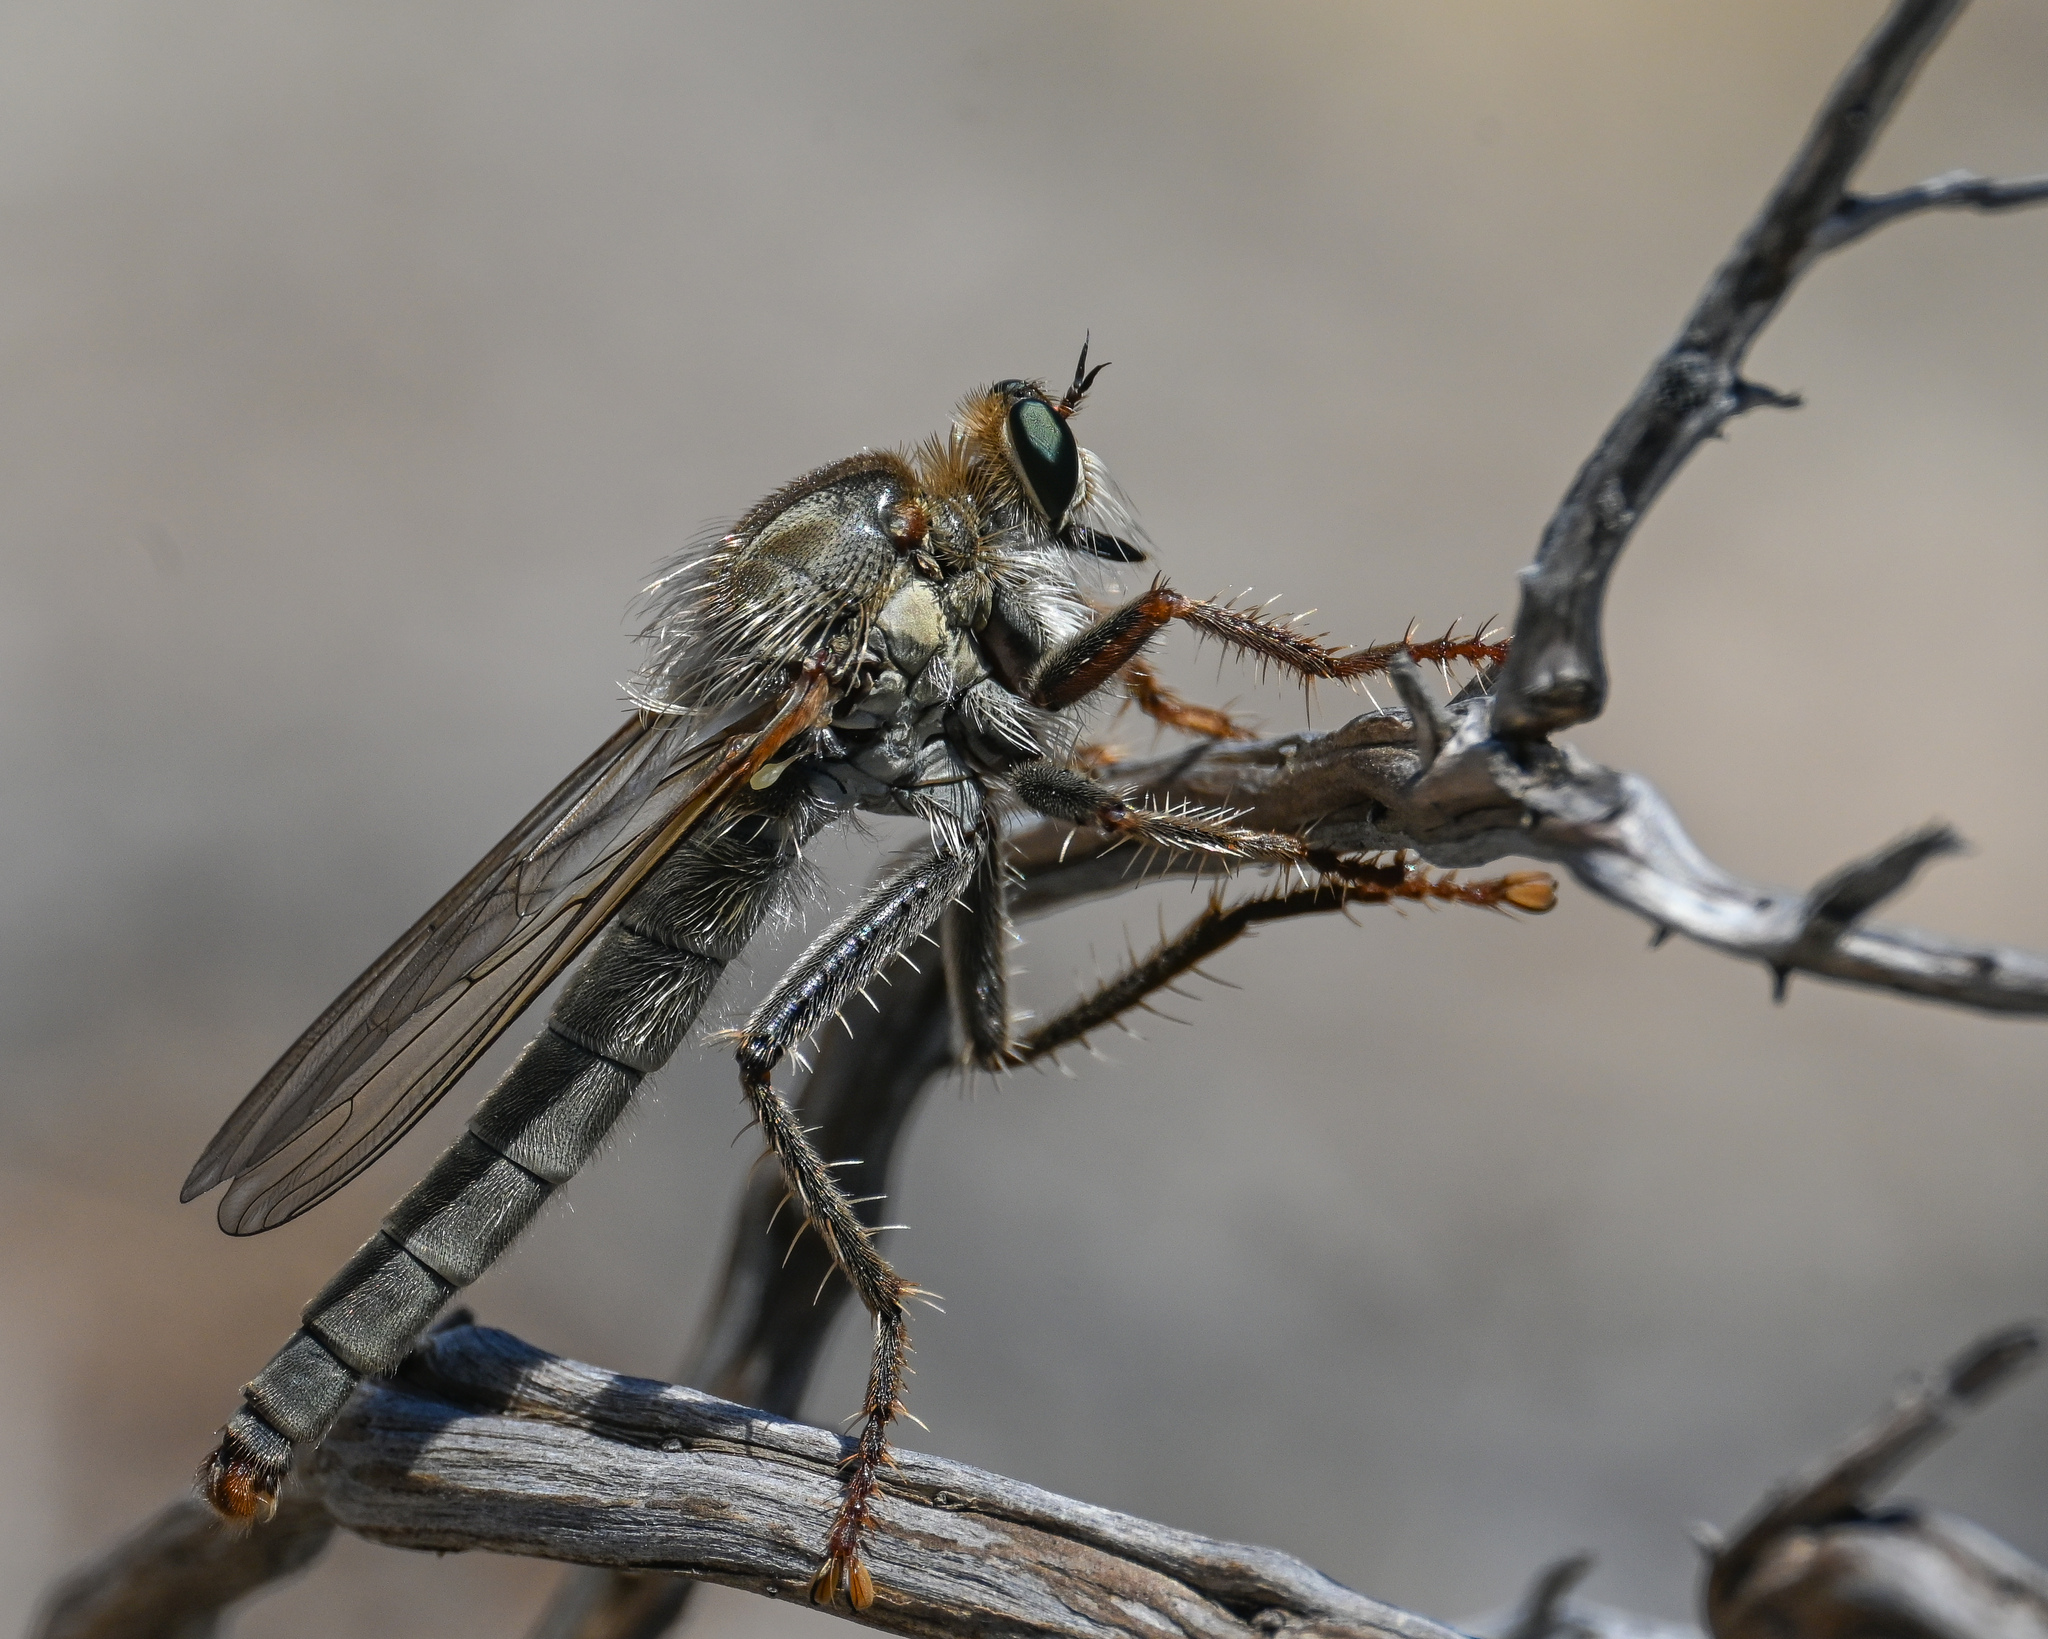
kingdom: Animalia
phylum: Arthropoda
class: Insecta
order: Diptera
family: Asilidae
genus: Stenopogon
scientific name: Stenopogon junceus
